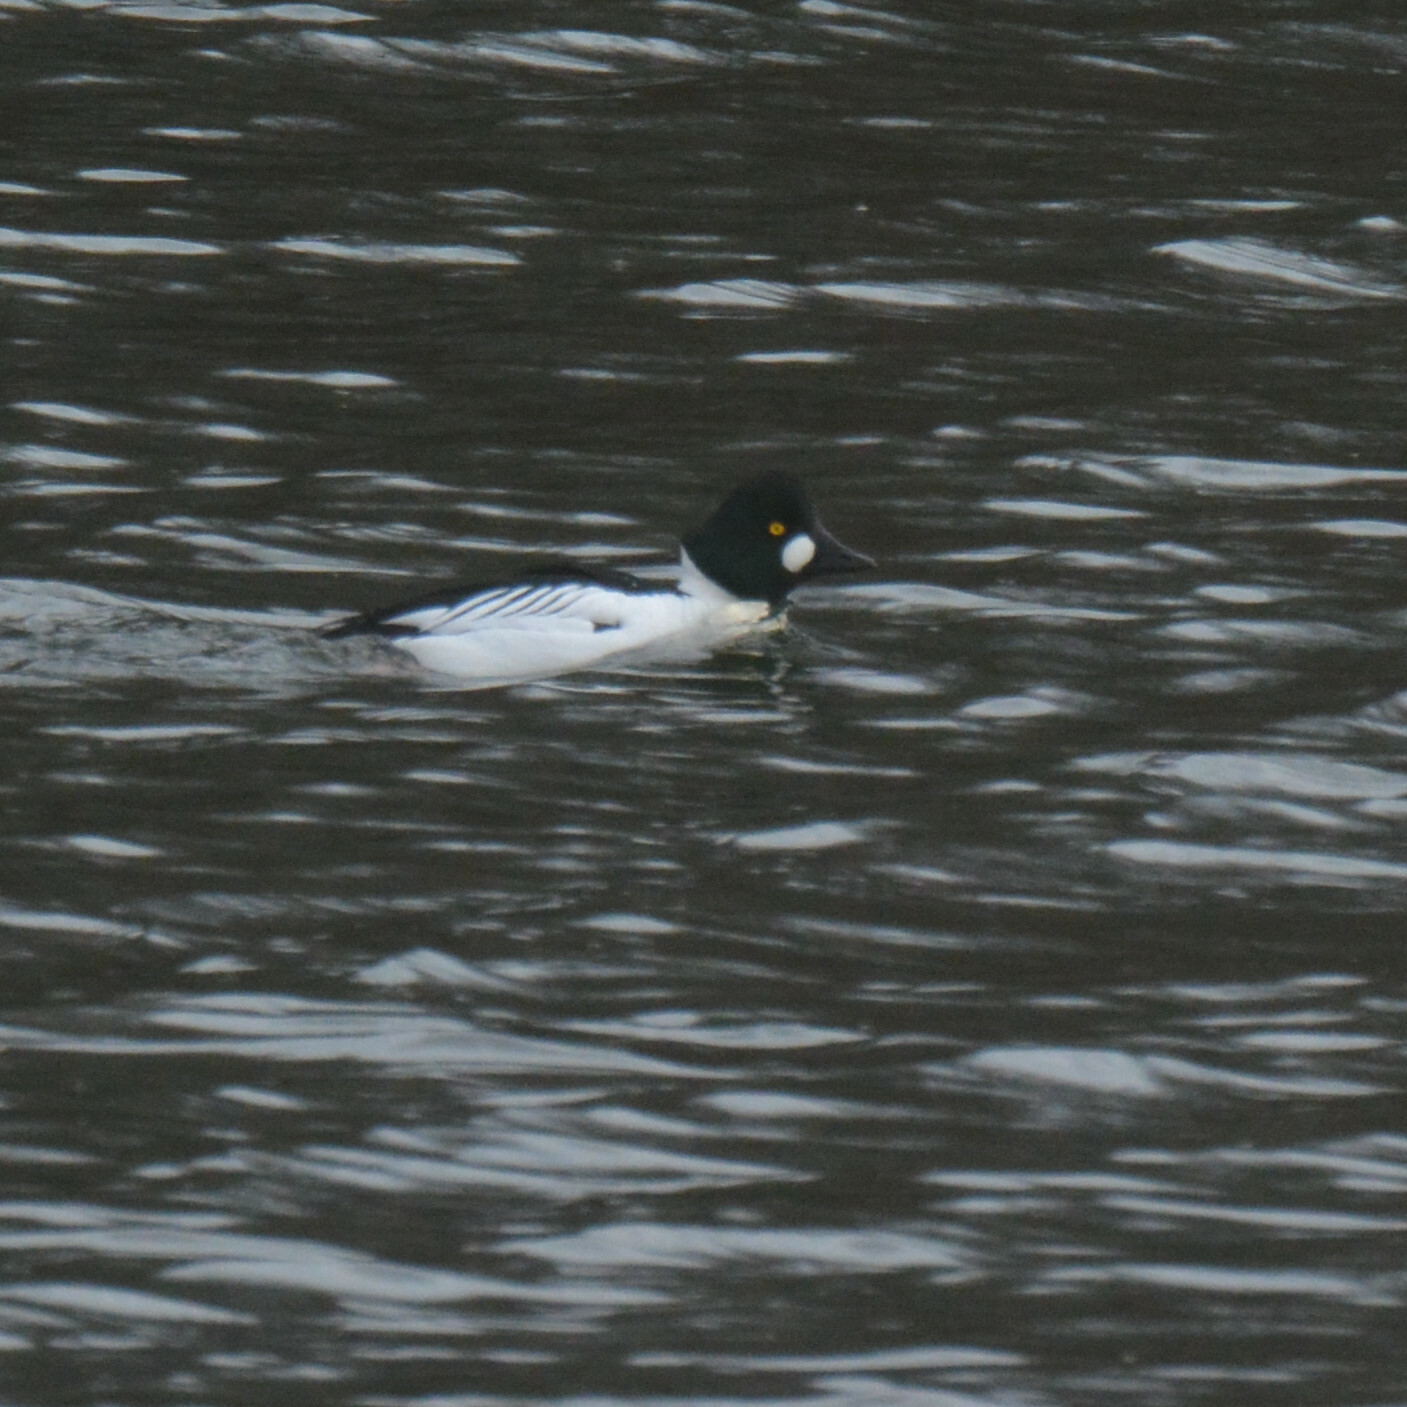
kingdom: Animalia
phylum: Chordata
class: Aves
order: Anseriformes
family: Anatidae
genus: Bucephala
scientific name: Bucephala clangula
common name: Common goldeneye
